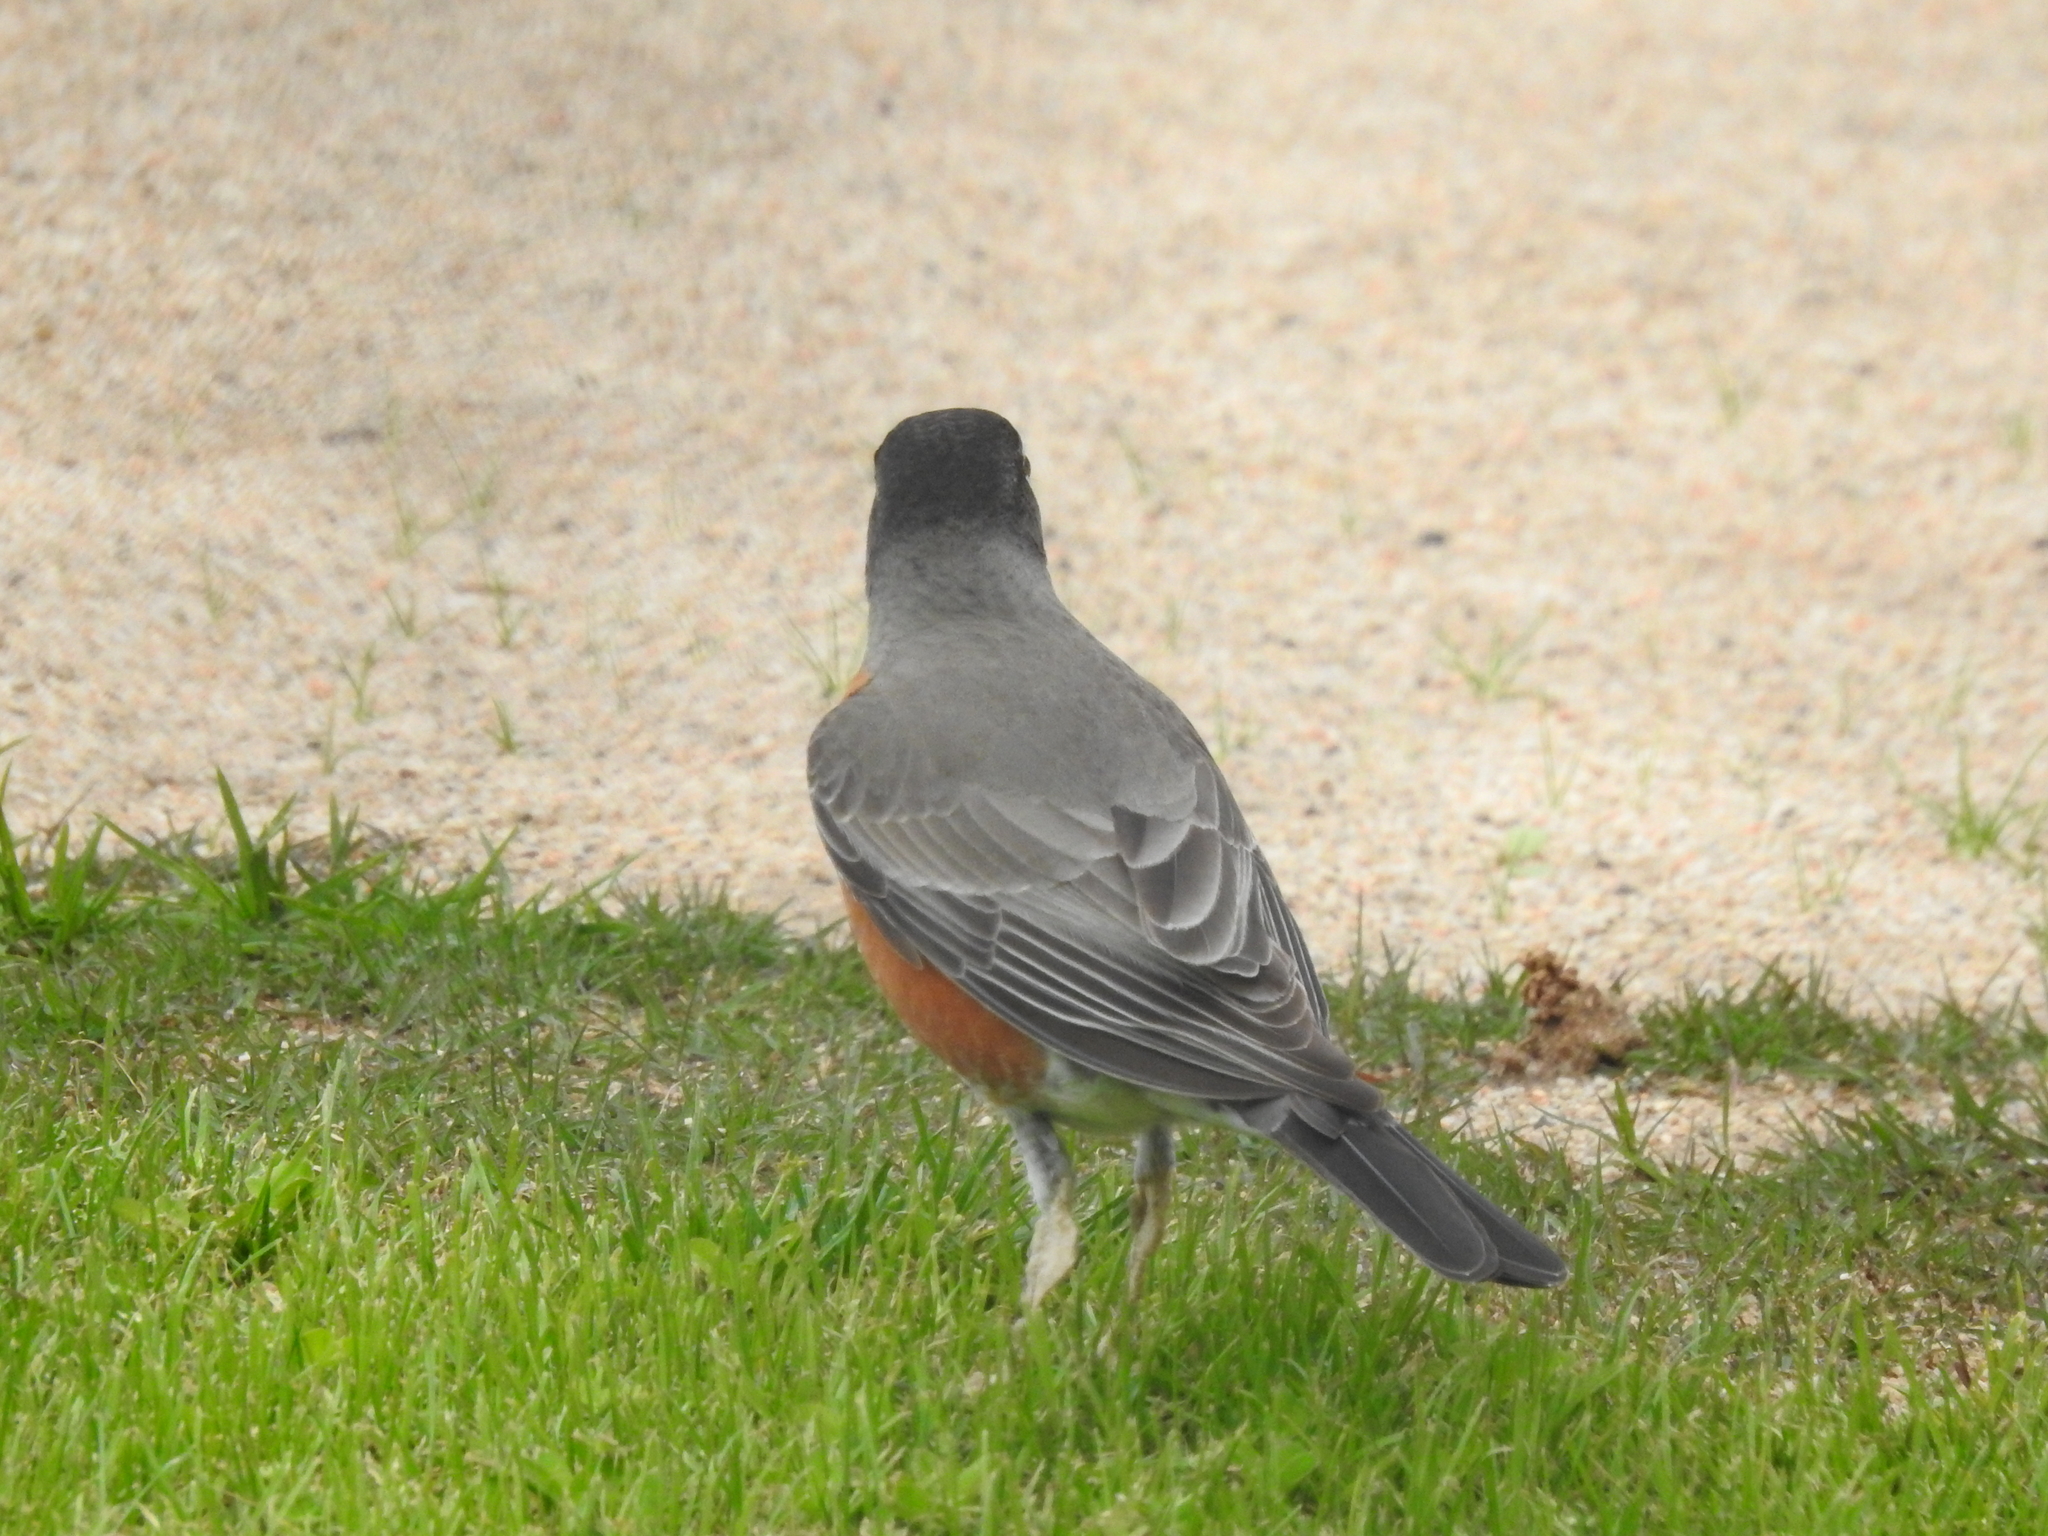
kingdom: Animalia
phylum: Chordata
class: Aves
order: Passeriformes
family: Turdidae
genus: Turdus
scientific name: Turdus migratorius
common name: American robin
